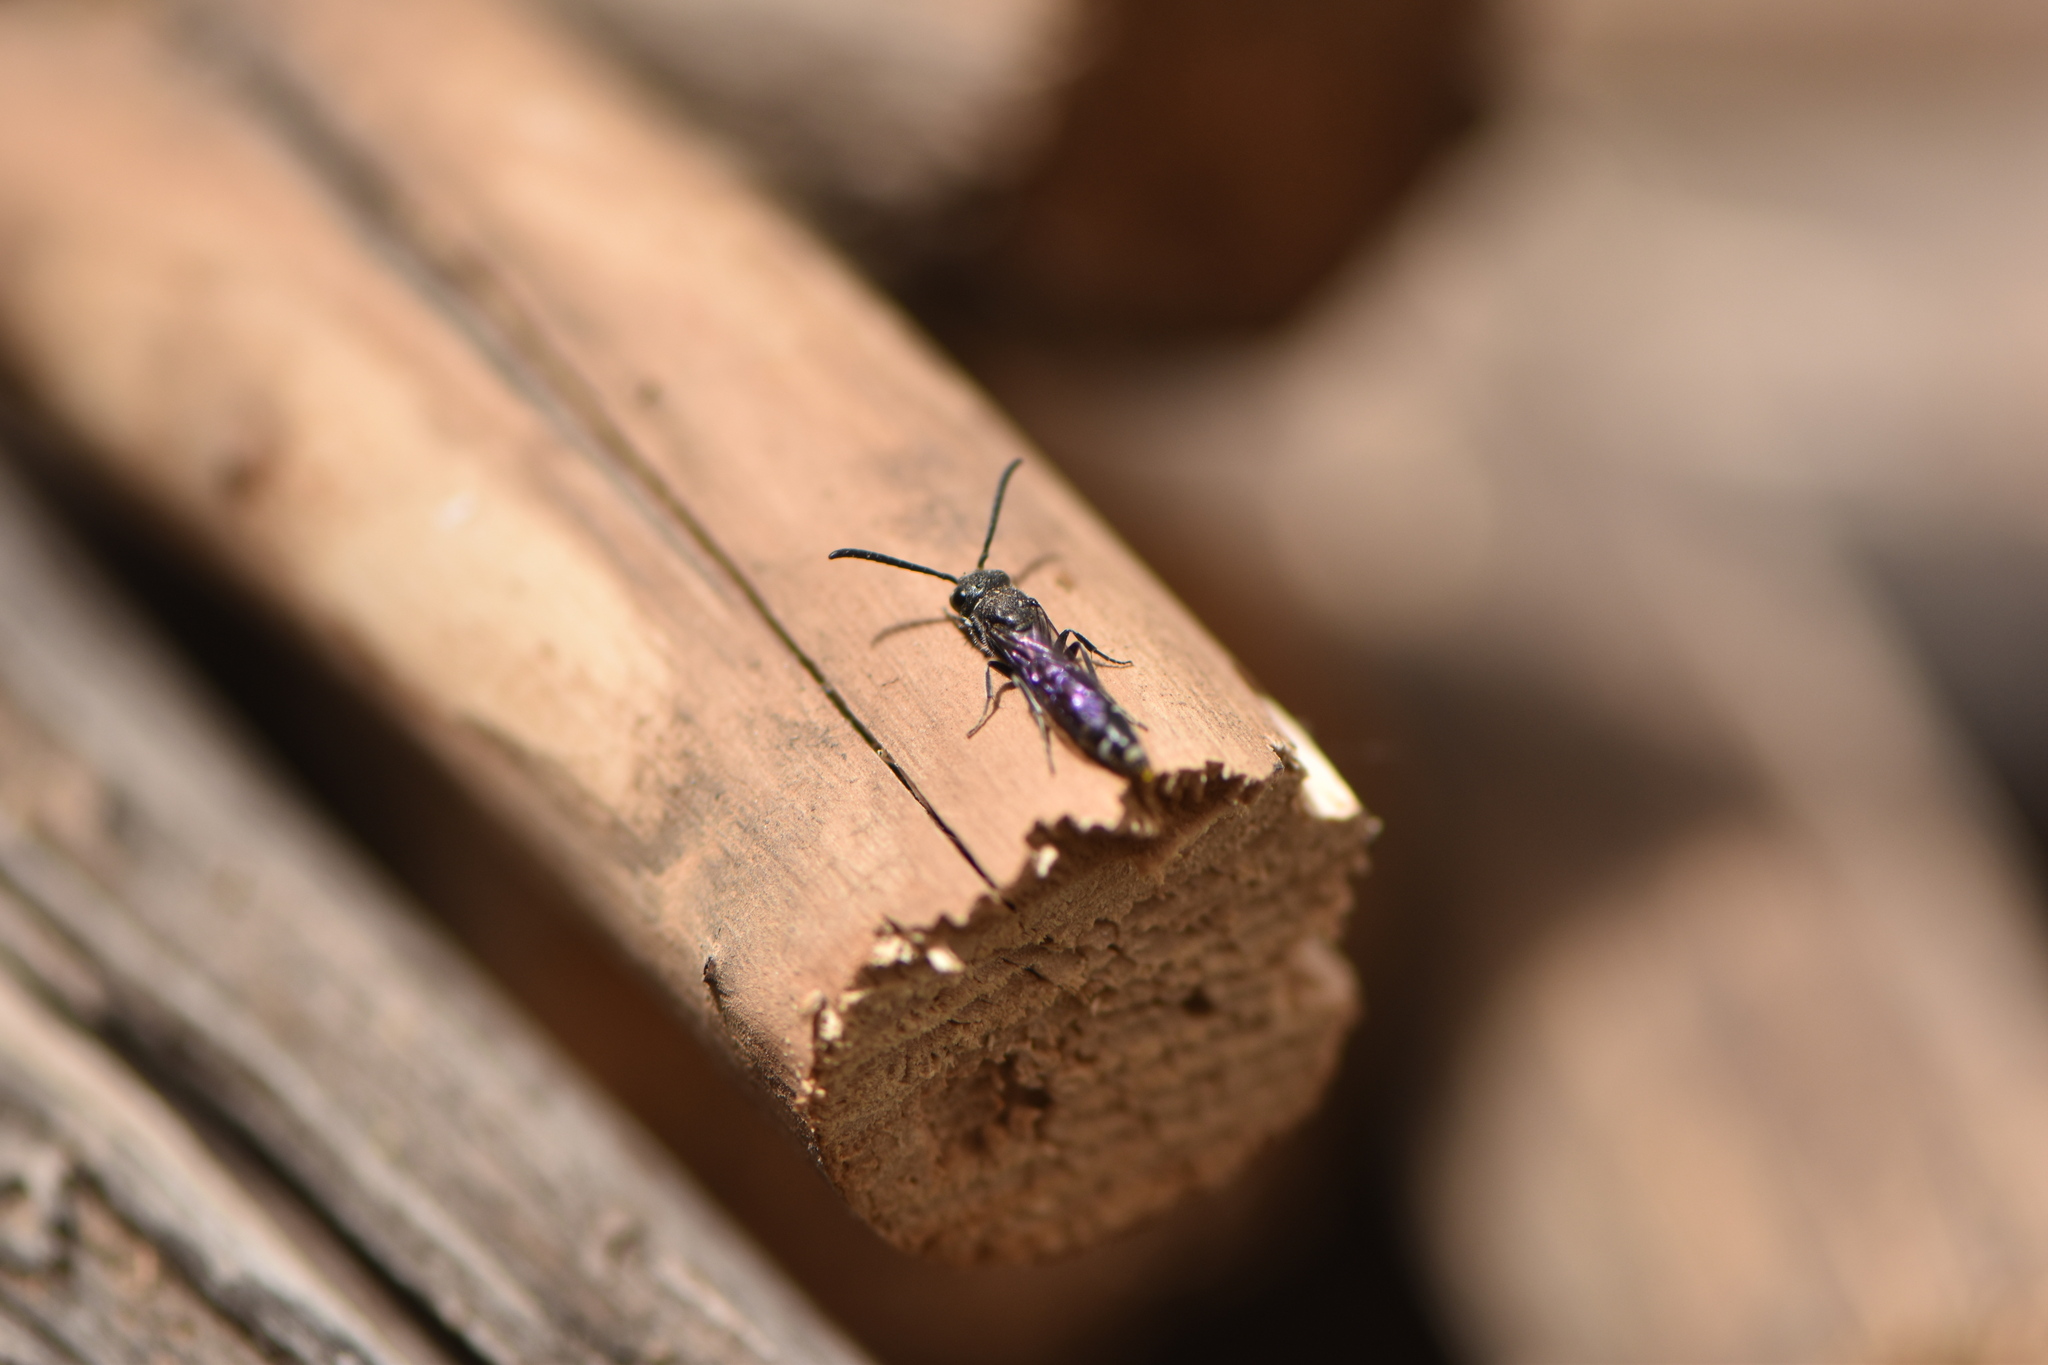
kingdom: Animalia
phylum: Arthropoda
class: Insecta
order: Hymenoptera
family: Sapygidae
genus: Sapyga
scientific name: Sapyga quinquepunctata
